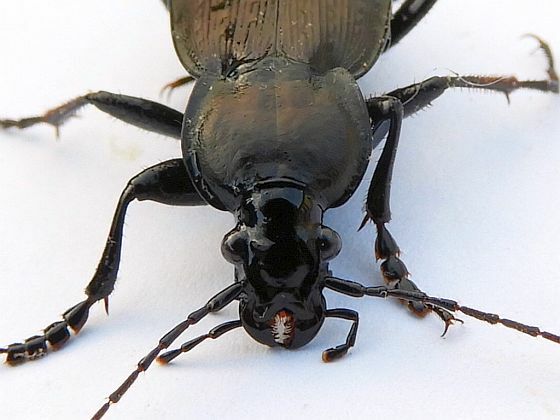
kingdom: Animalia
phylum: Arthropoda
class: Insecta
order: Coleoptera
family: Carabidae
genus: Carabus
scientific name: Carabus vinctus
